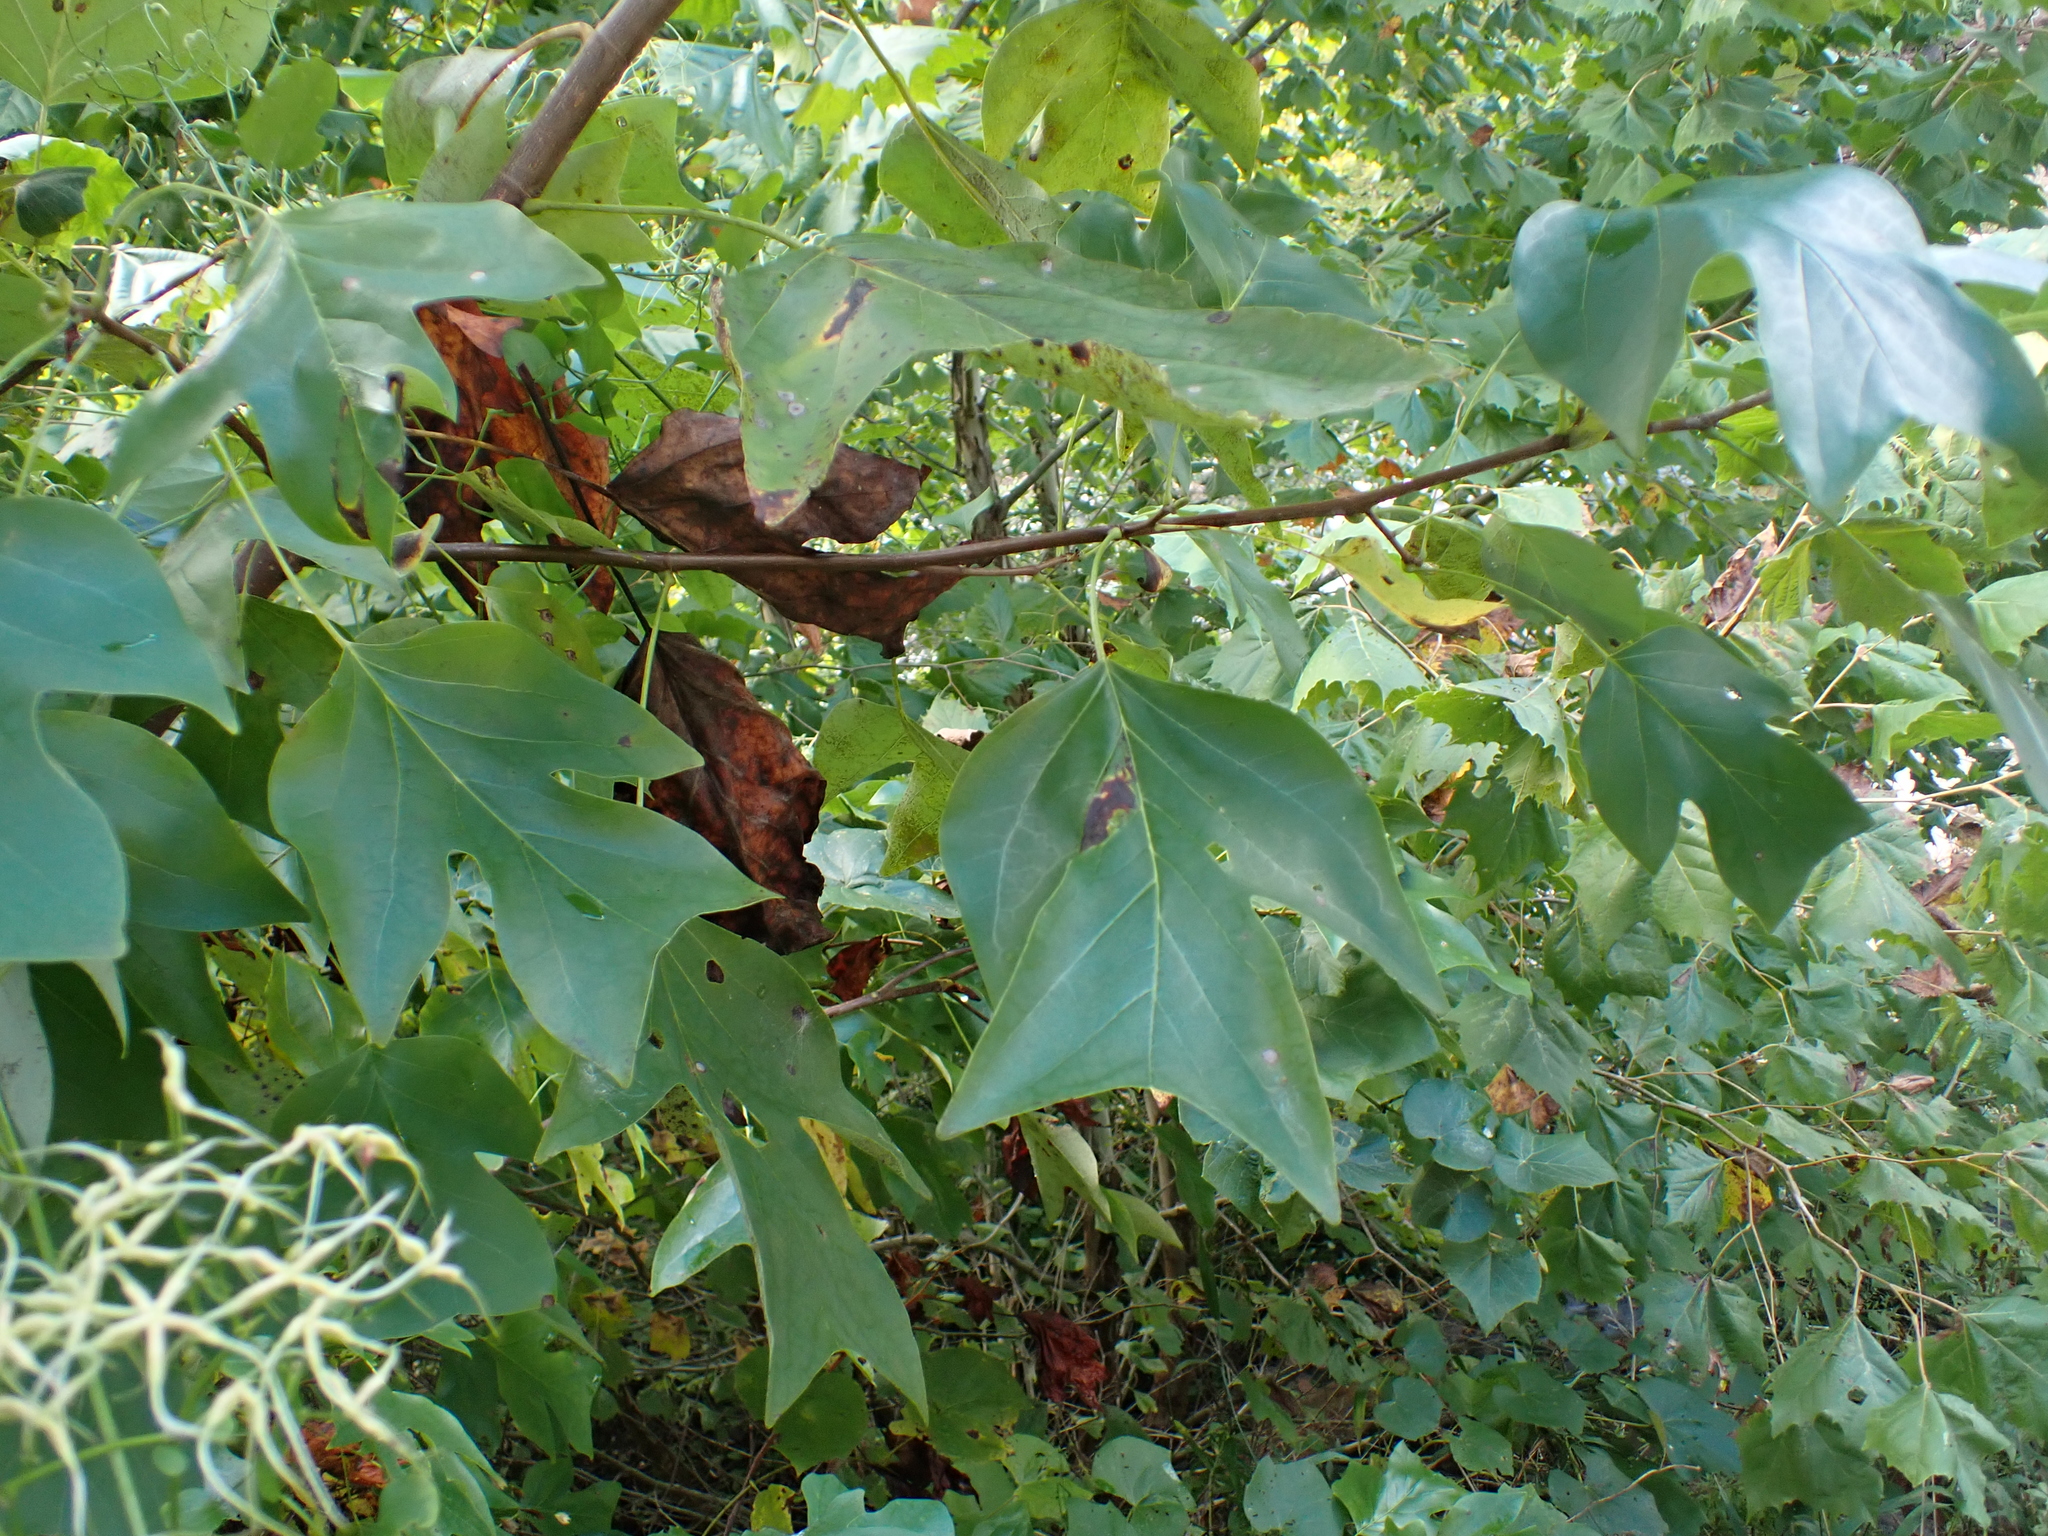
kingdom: Plantae
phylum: Tracheophyta
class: Magnoliopsida
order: Magnoliales
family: Magnoliaceae
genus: Liriodendron
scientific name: Liriodendron tulipifera
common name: Tulip tree
